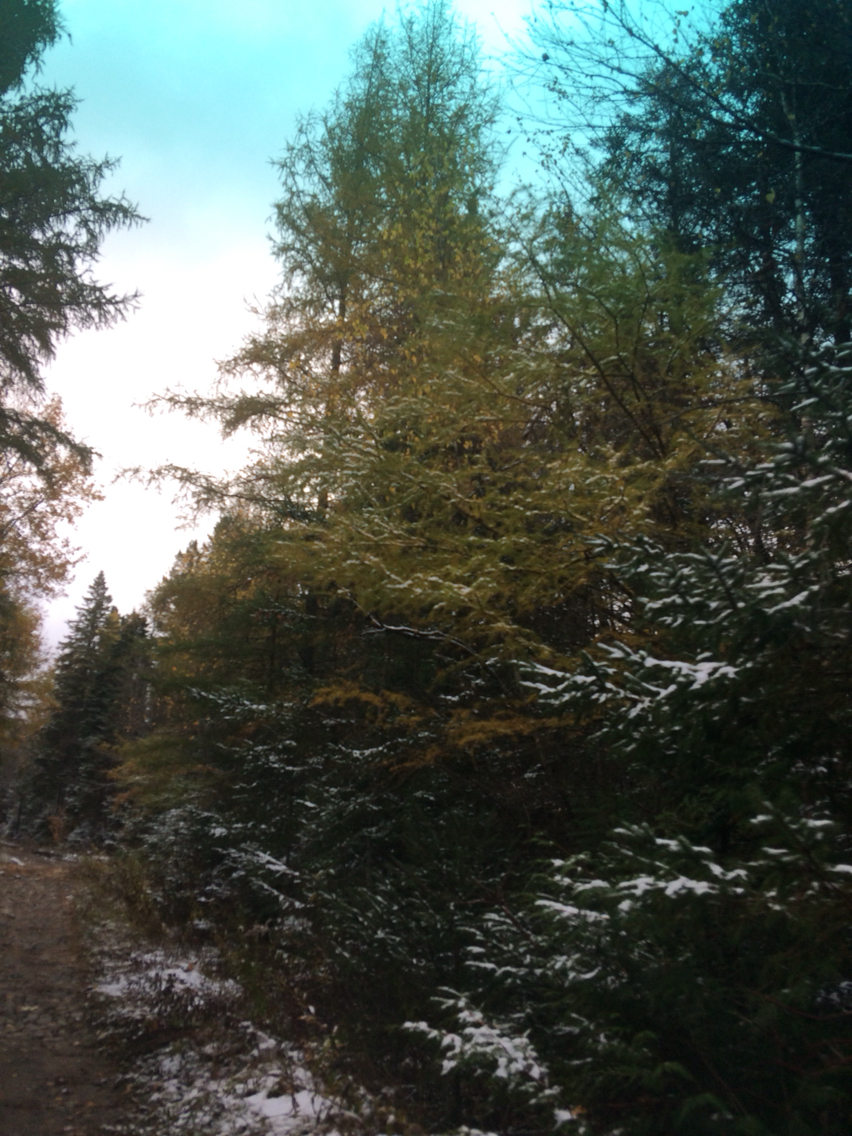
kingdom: Plantae
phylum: Tracheophyta
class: Pinopsida
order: Pinales
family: Pinaceae
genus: Larix
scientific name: Larix laricina
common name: American larch
